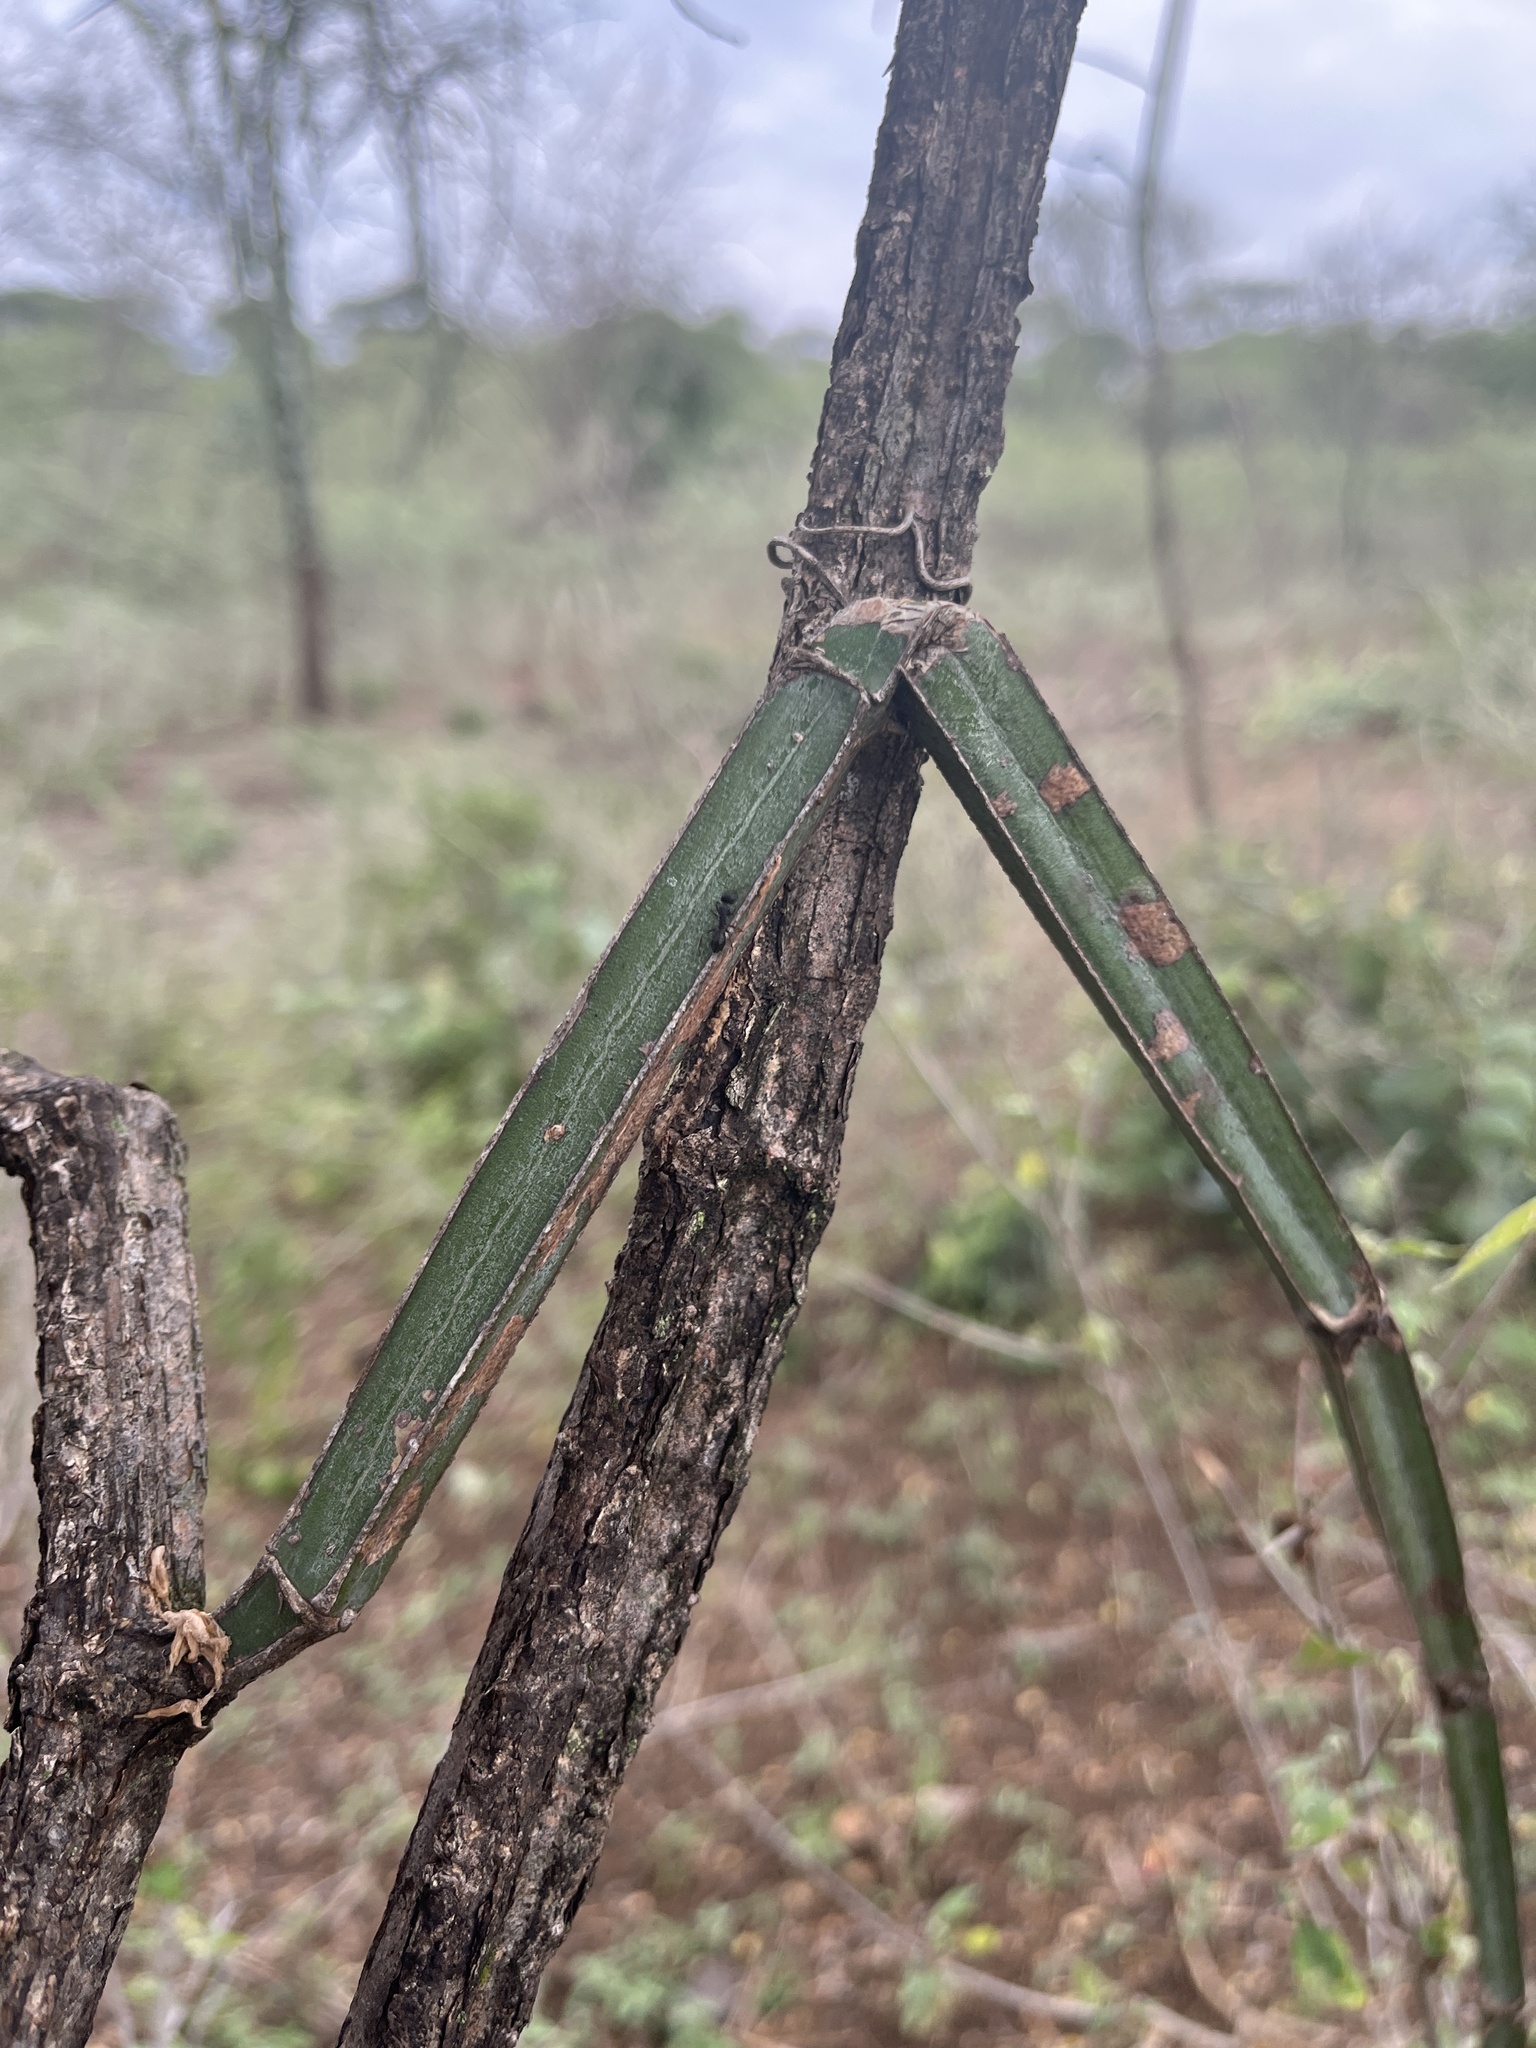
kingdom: Plantae
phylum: Tracheophyta
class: Magnoliopsida
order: Vitales
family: Vitaceae
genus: Cissus
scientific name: Cissus quadrangularis
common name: Veldt-grape
